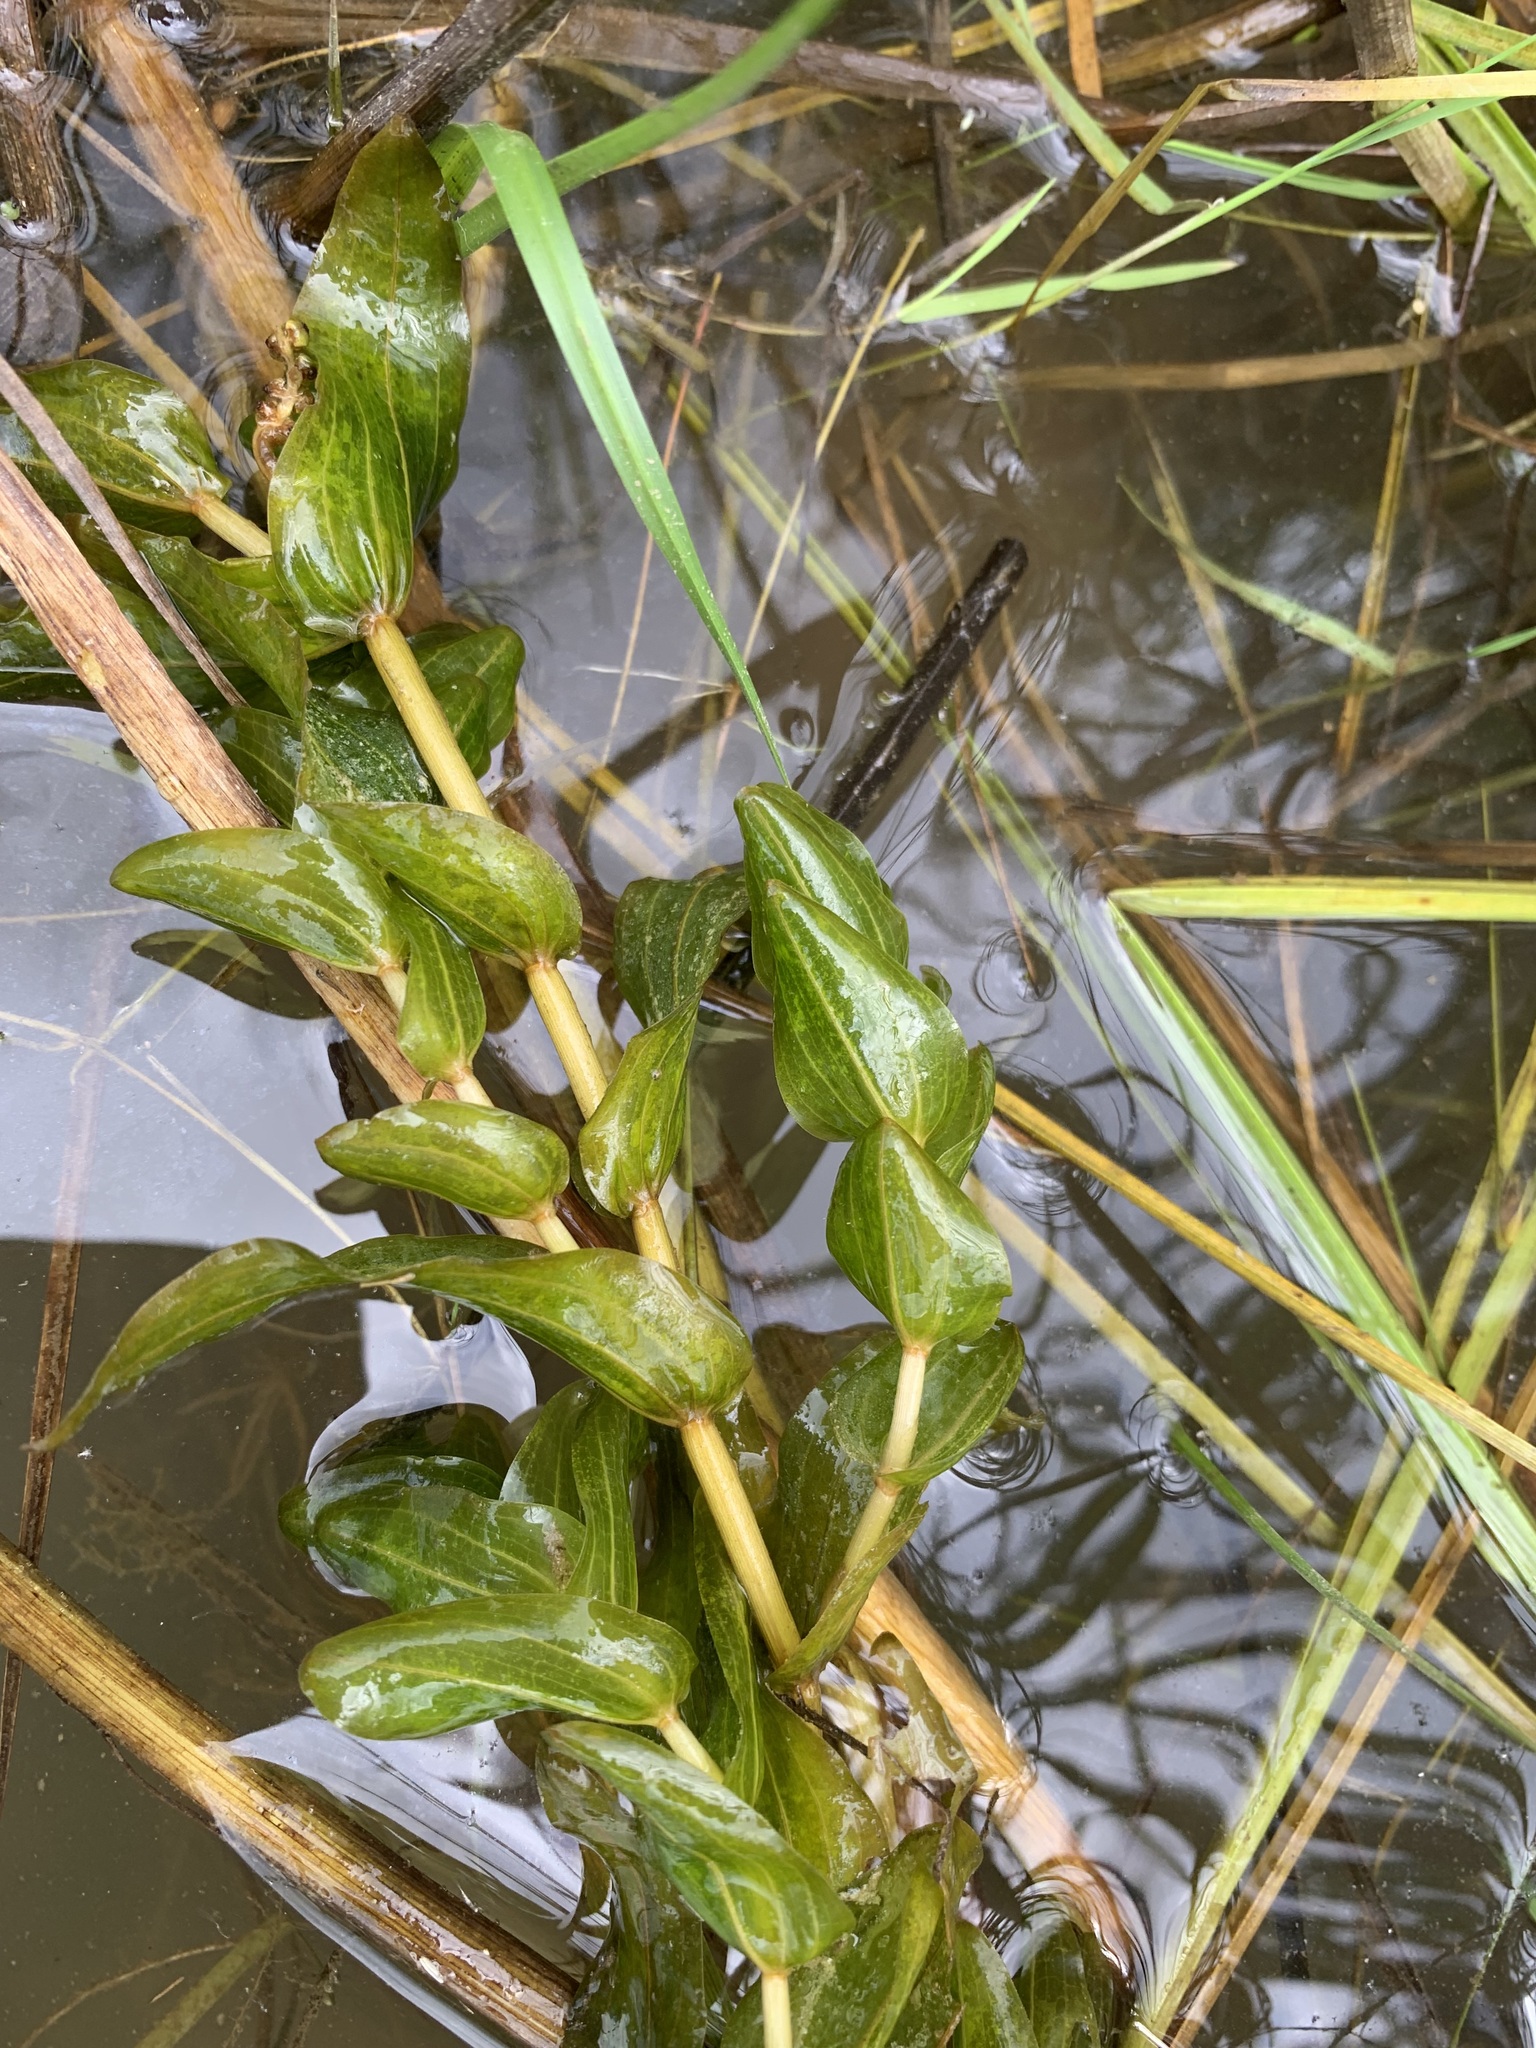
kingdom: Plantae
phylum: Tracheophyta
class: Liliopsida
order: Alismatales
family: Potamogetonaceae
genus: Potamogeton
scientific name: Potamogeton perfoliatus
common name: Perfoliate pondweed
